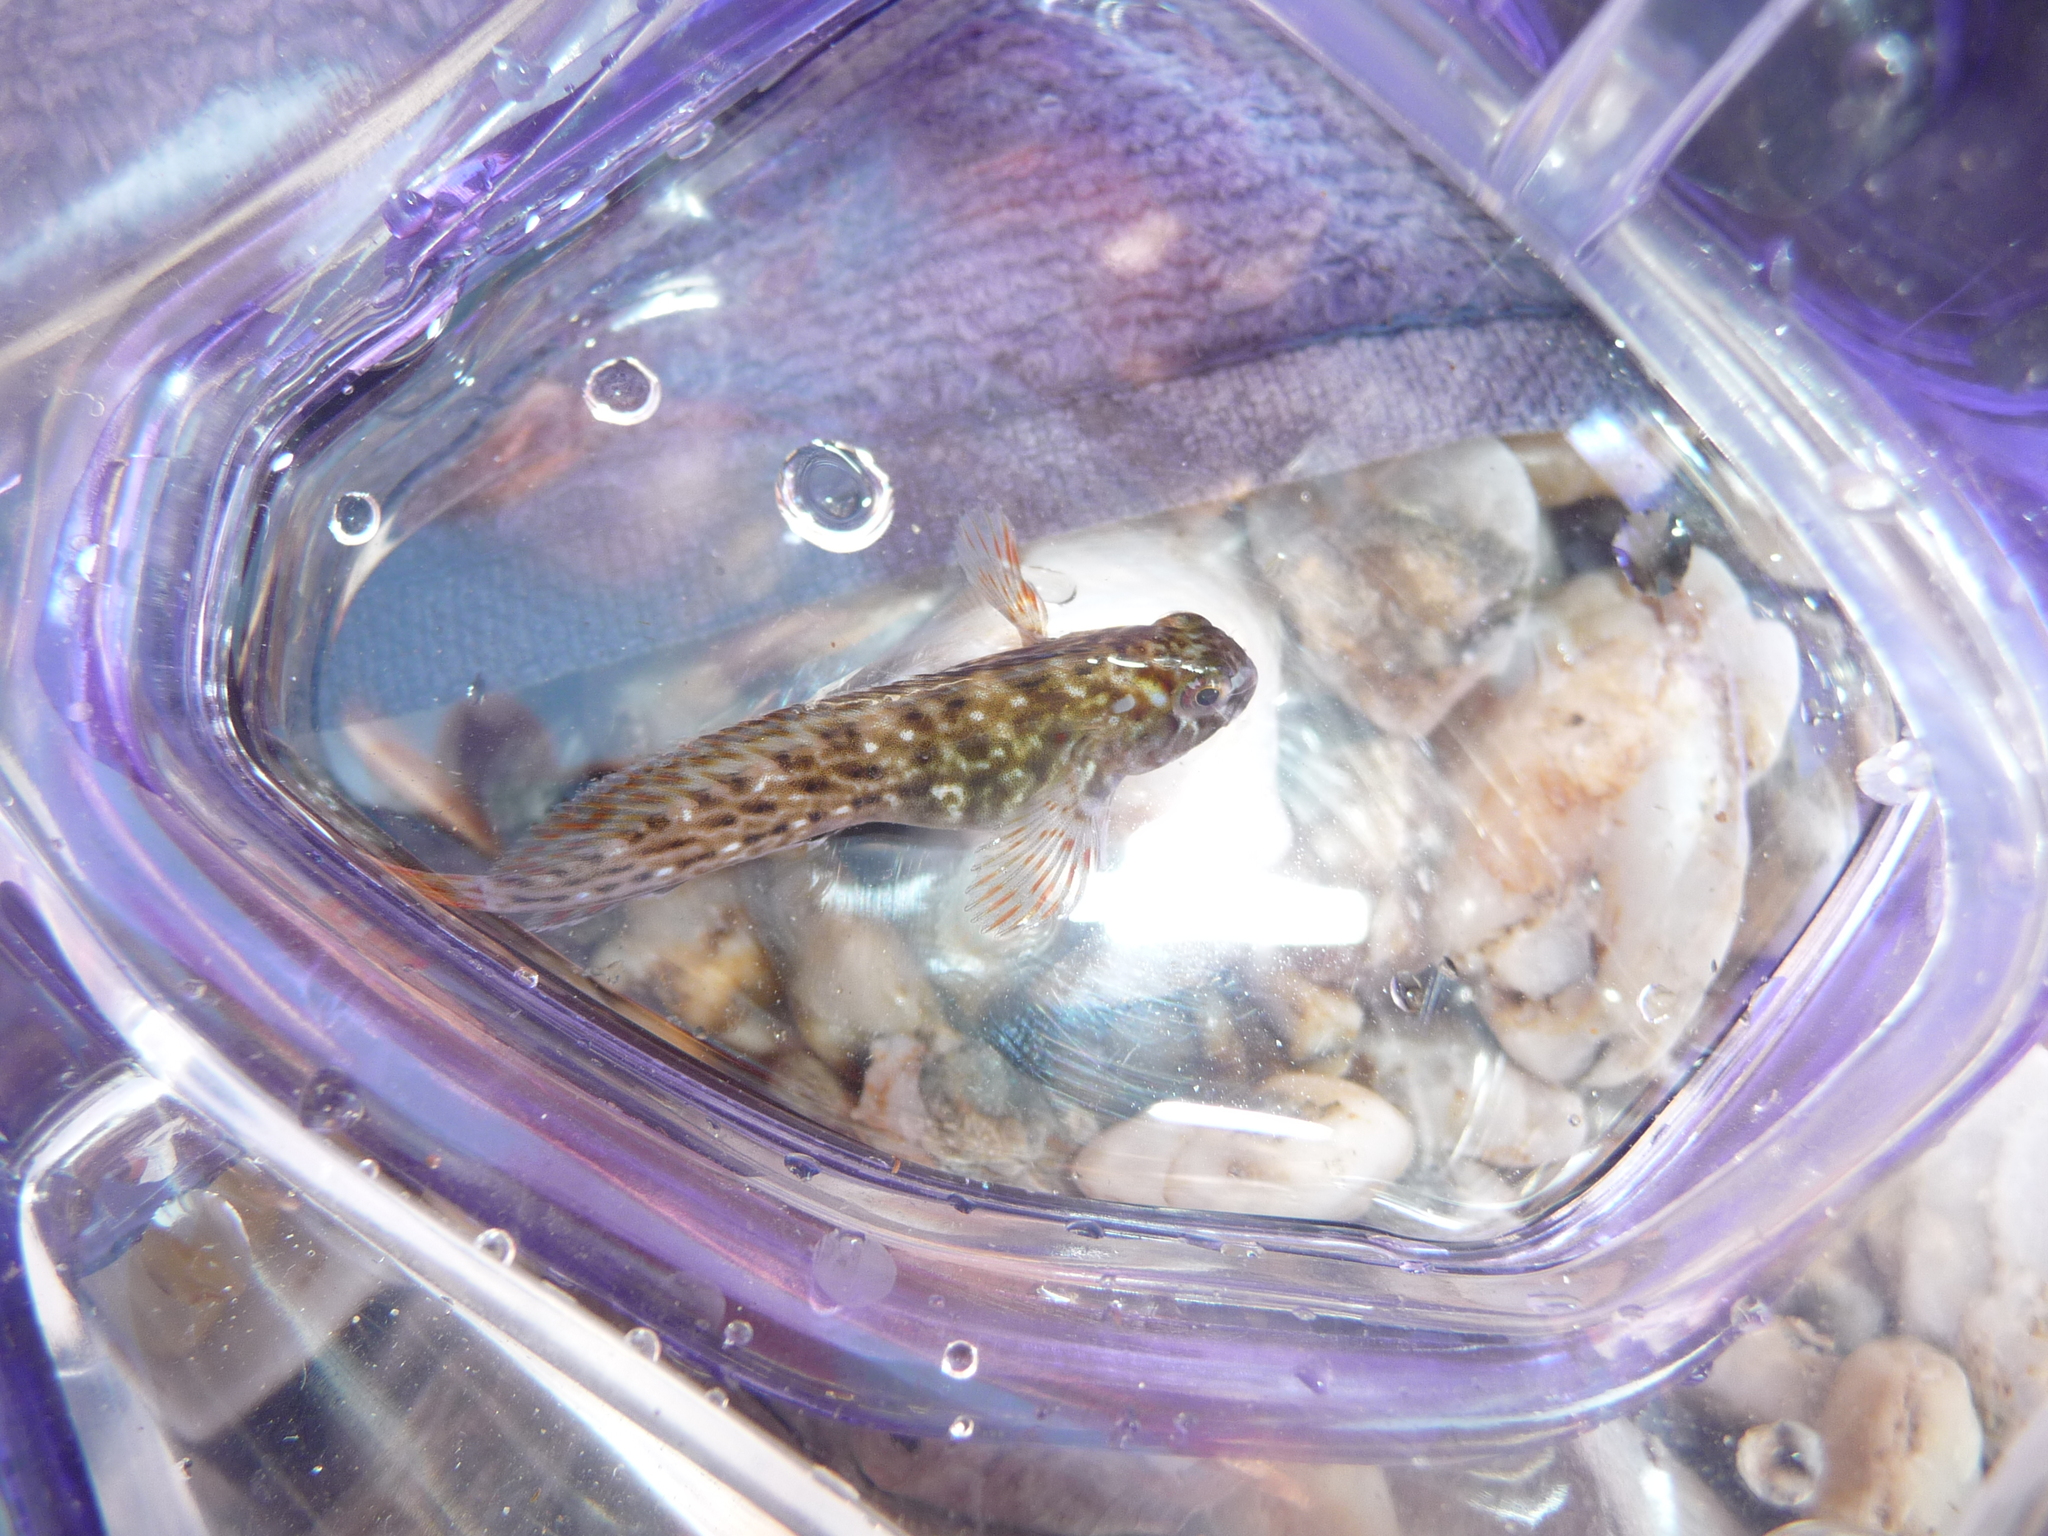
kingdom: Animalia
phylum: Chordata
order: Perciformes
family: Blenniidae
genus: Parablennius
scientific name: Parablennius sanguinolentus
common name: Black sea blenny
